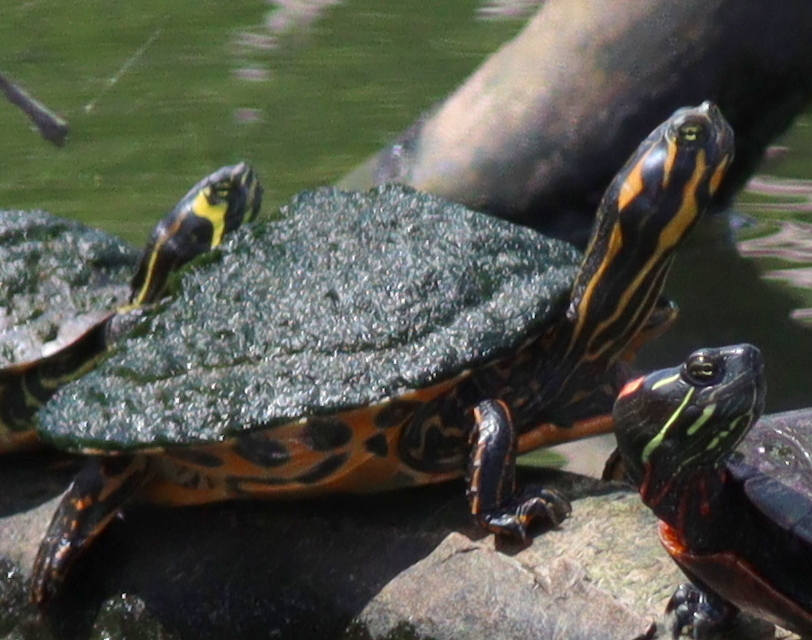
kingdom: Animalia
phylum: Chordata
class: Testudines
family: Emydidae
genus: Pseudemys
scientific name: Pseudemys concinna
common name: Eastern river cooter
